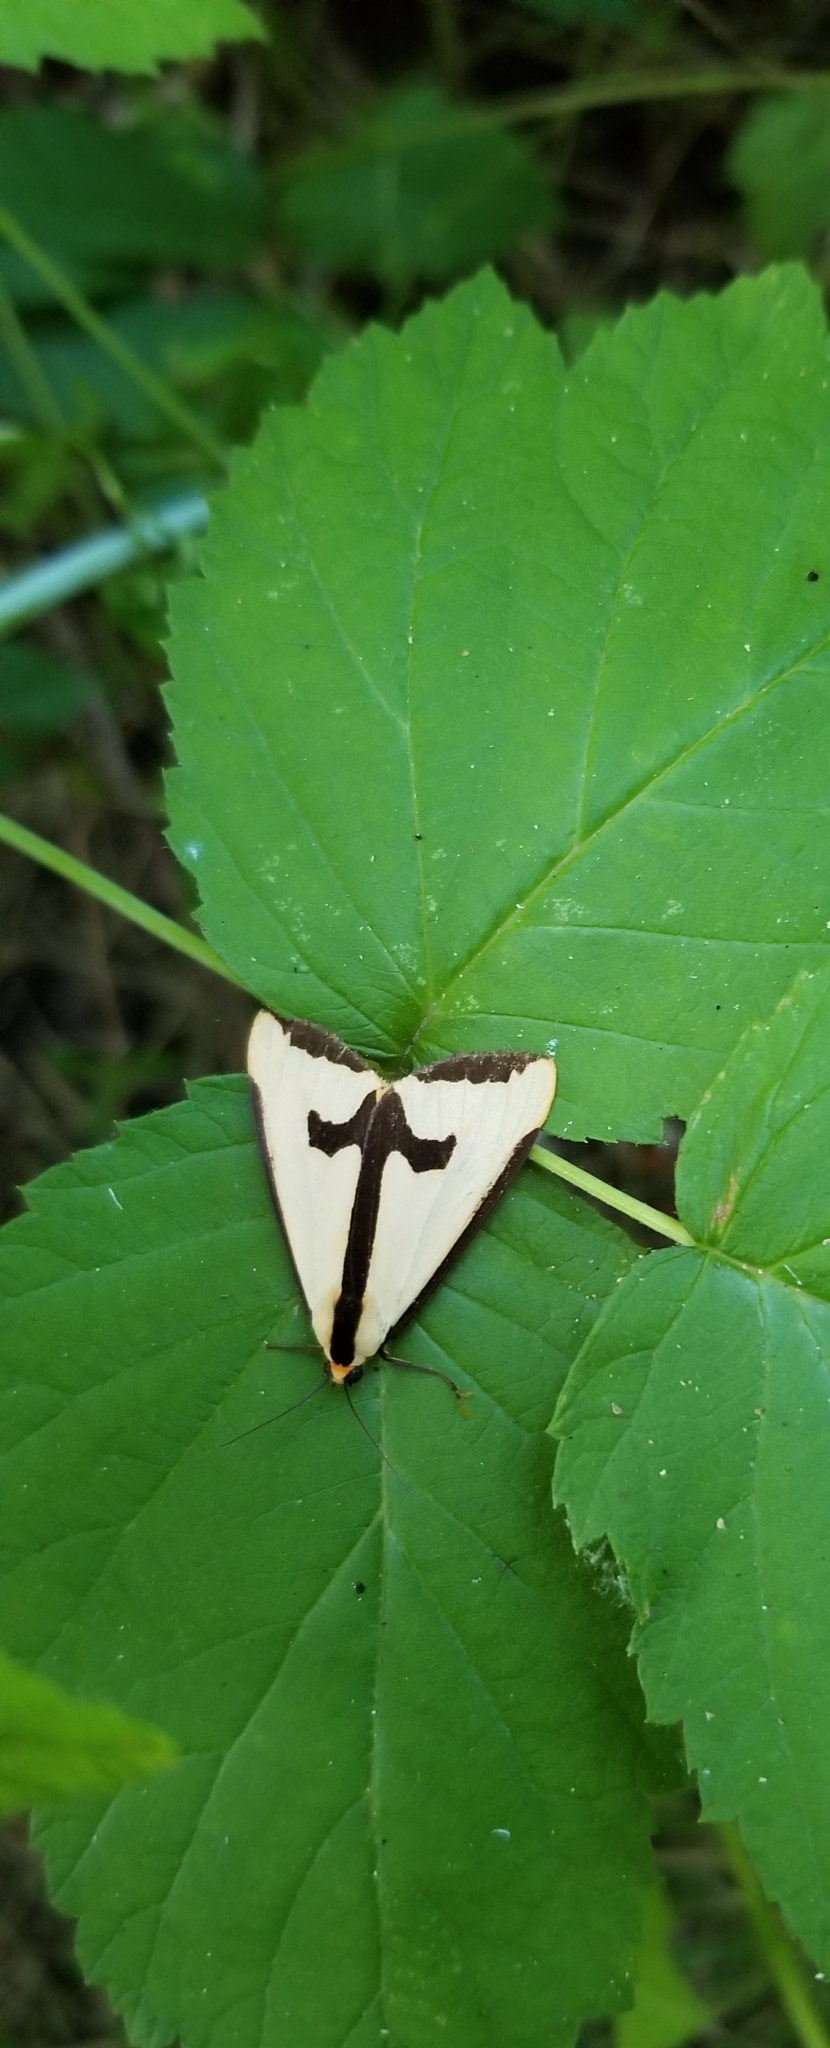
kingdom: Animalia
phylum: Arthropoda
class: Insecta
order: Lepidoptera
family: Erebidae
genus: Haploa
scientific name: Haploa clymene
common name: Clymene moth
